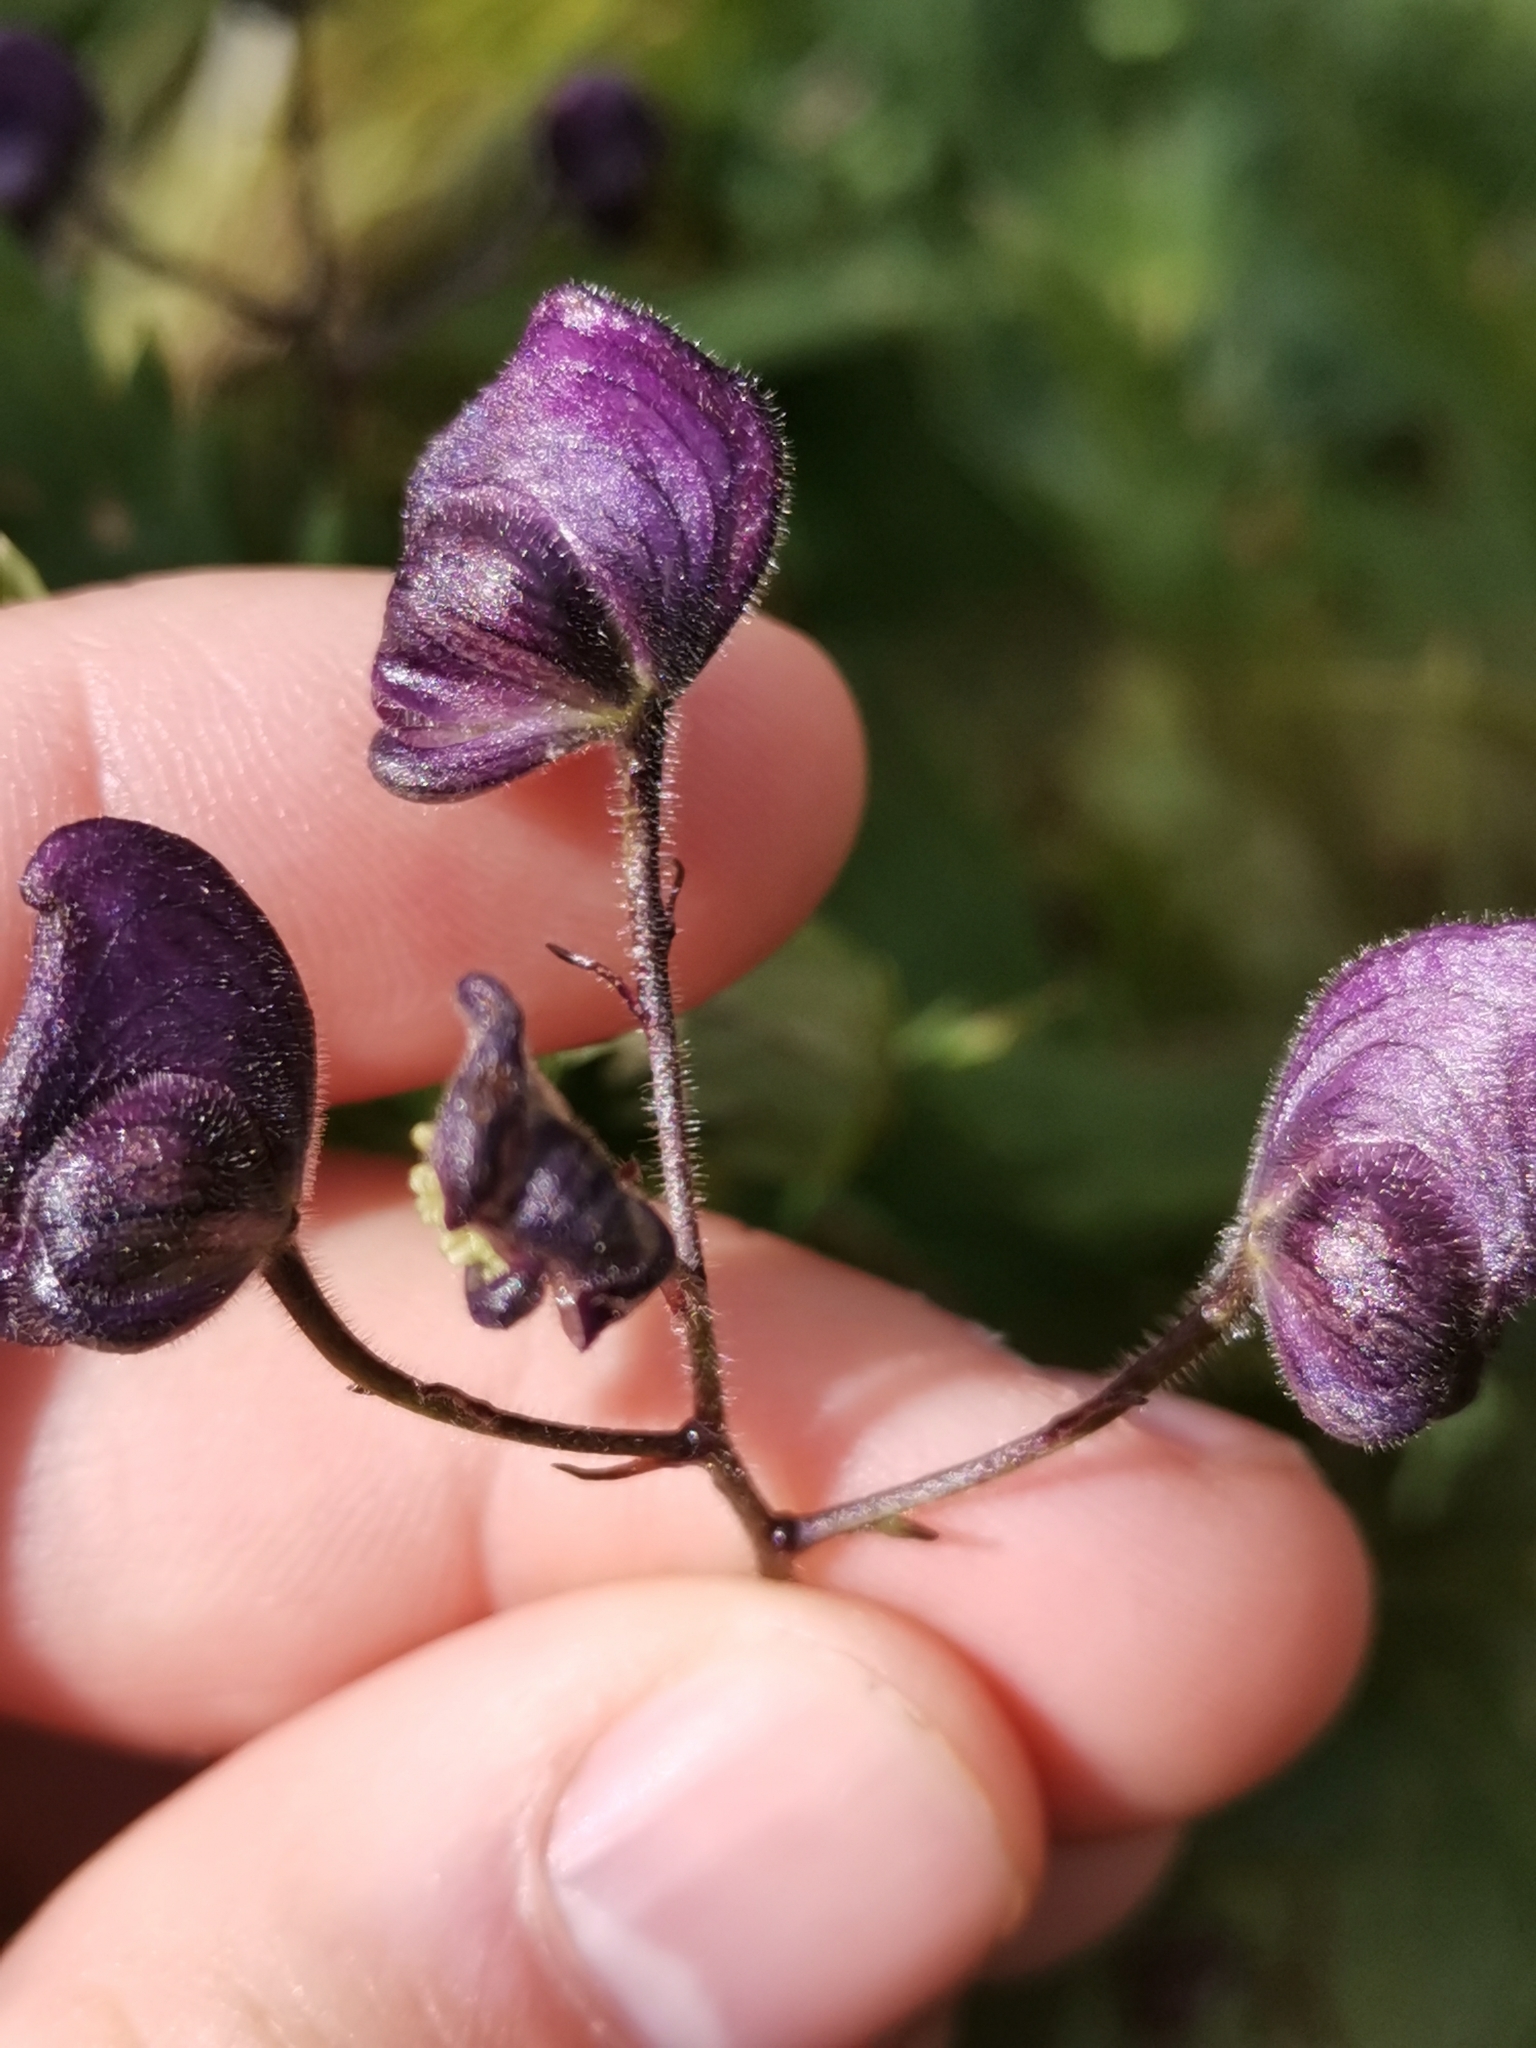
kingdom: Plantae
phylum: Tracheophyta
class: Magnoliopsida
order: Ranunculales
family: Ranunculaceae
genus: Aconitum
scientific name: Aconitum degenii
